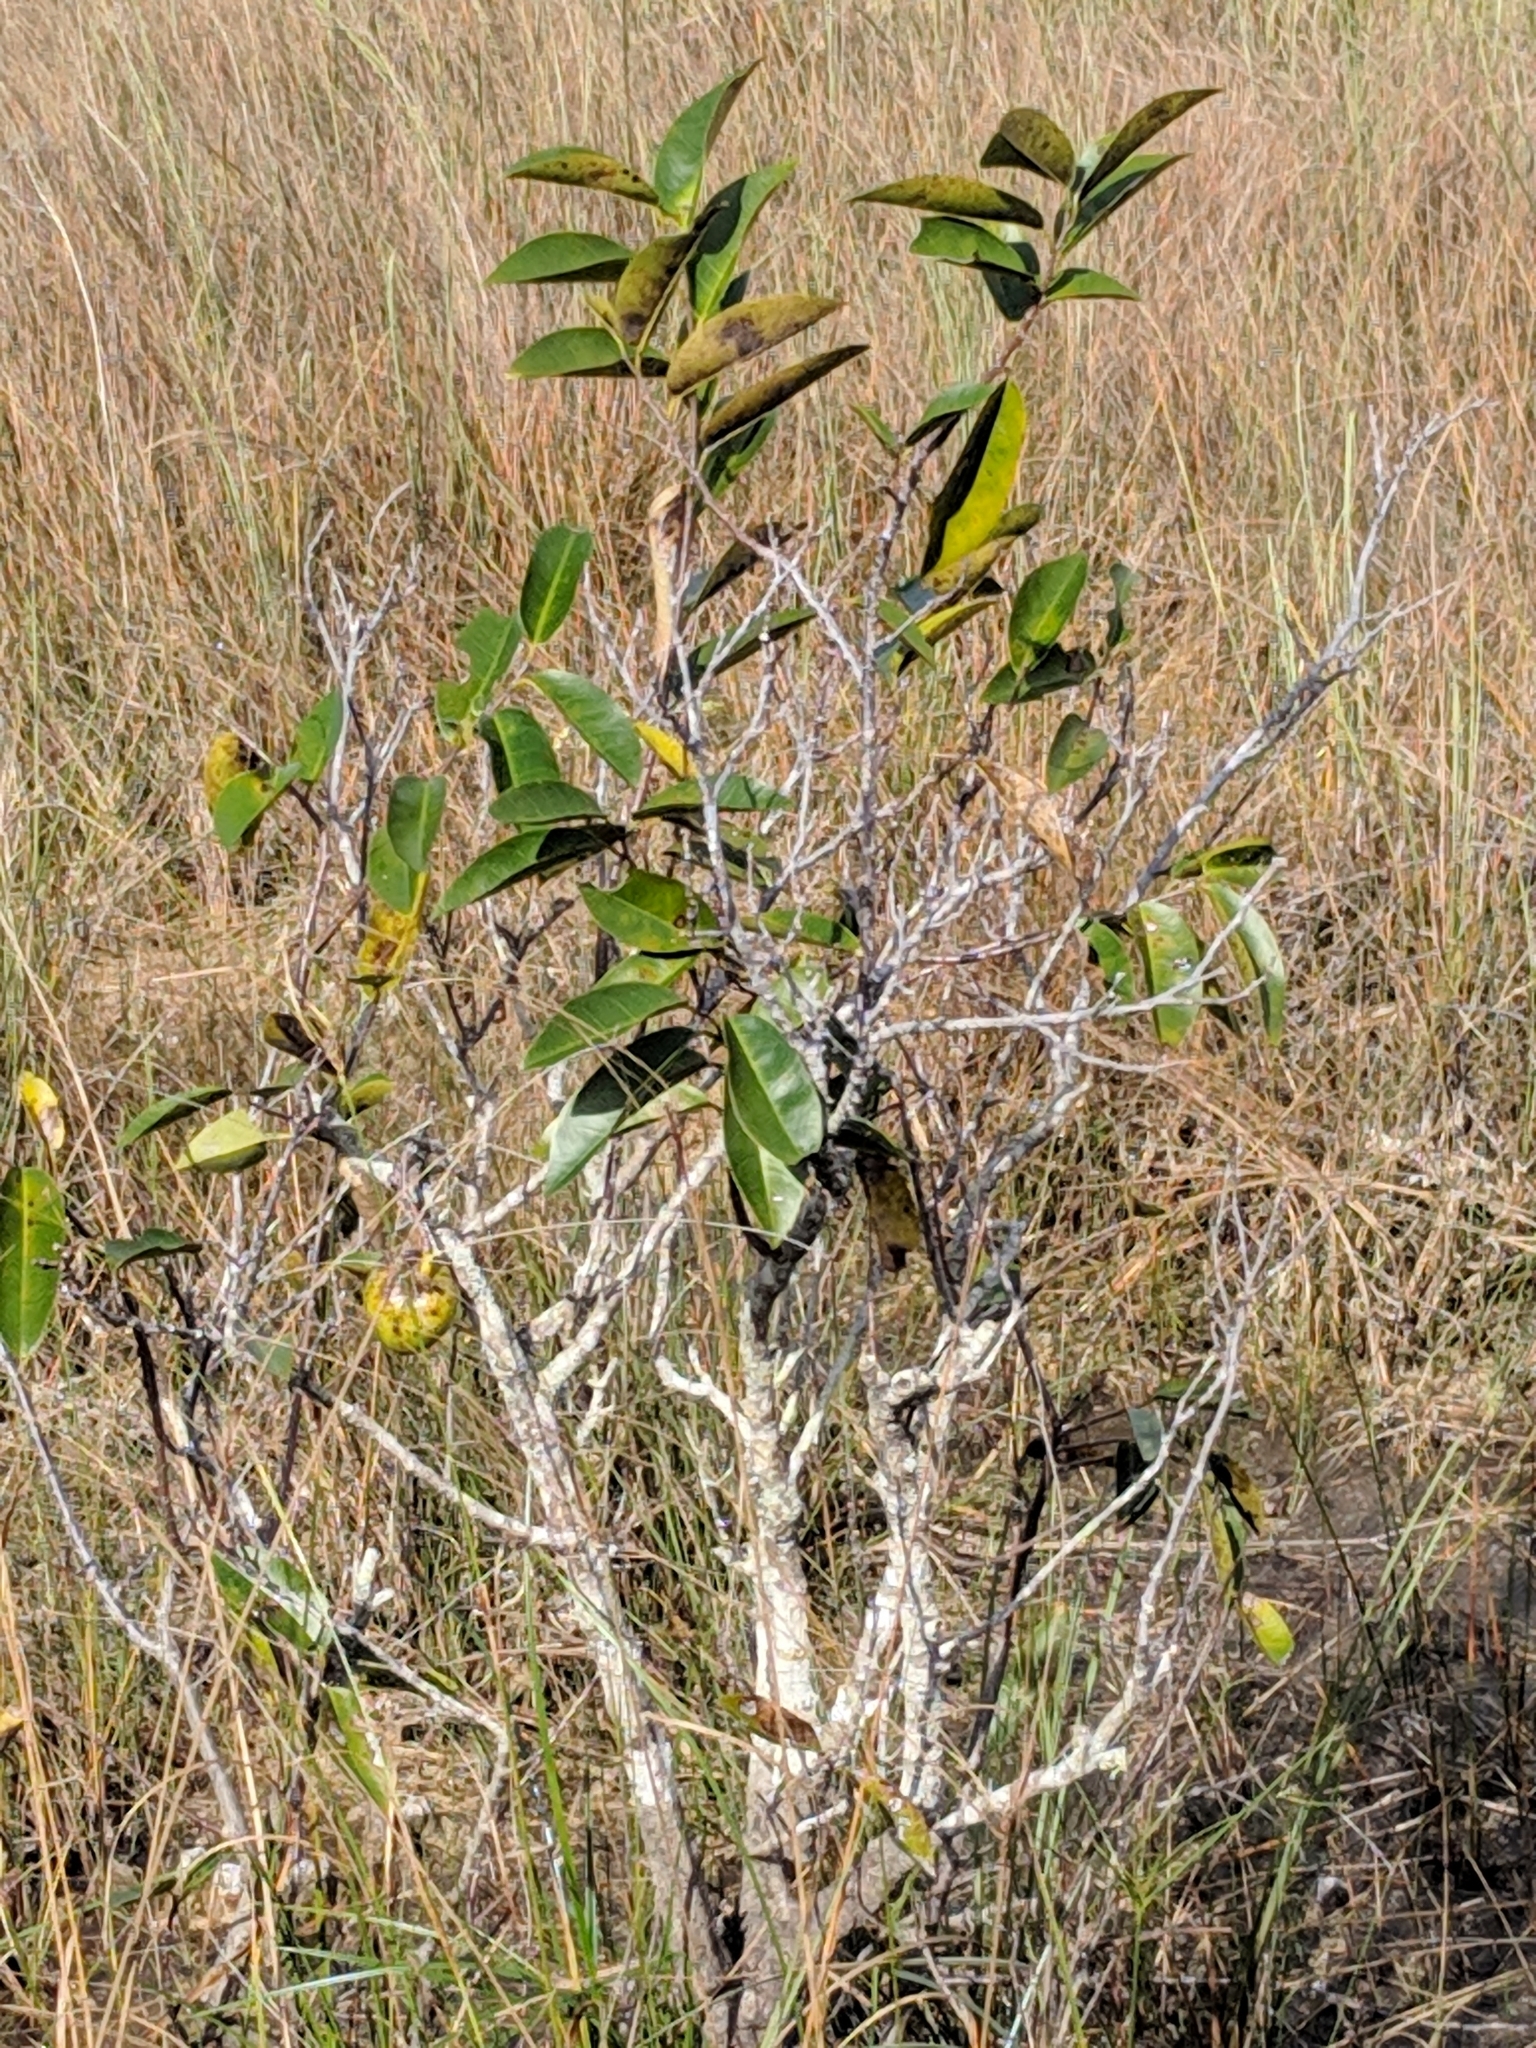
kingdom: Plantae
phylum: Tracheophyta
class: Magnoliopsida
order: Magnoliales
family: Annonaceae
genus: Annona
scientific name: Annona glabra
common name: Monkey apple
